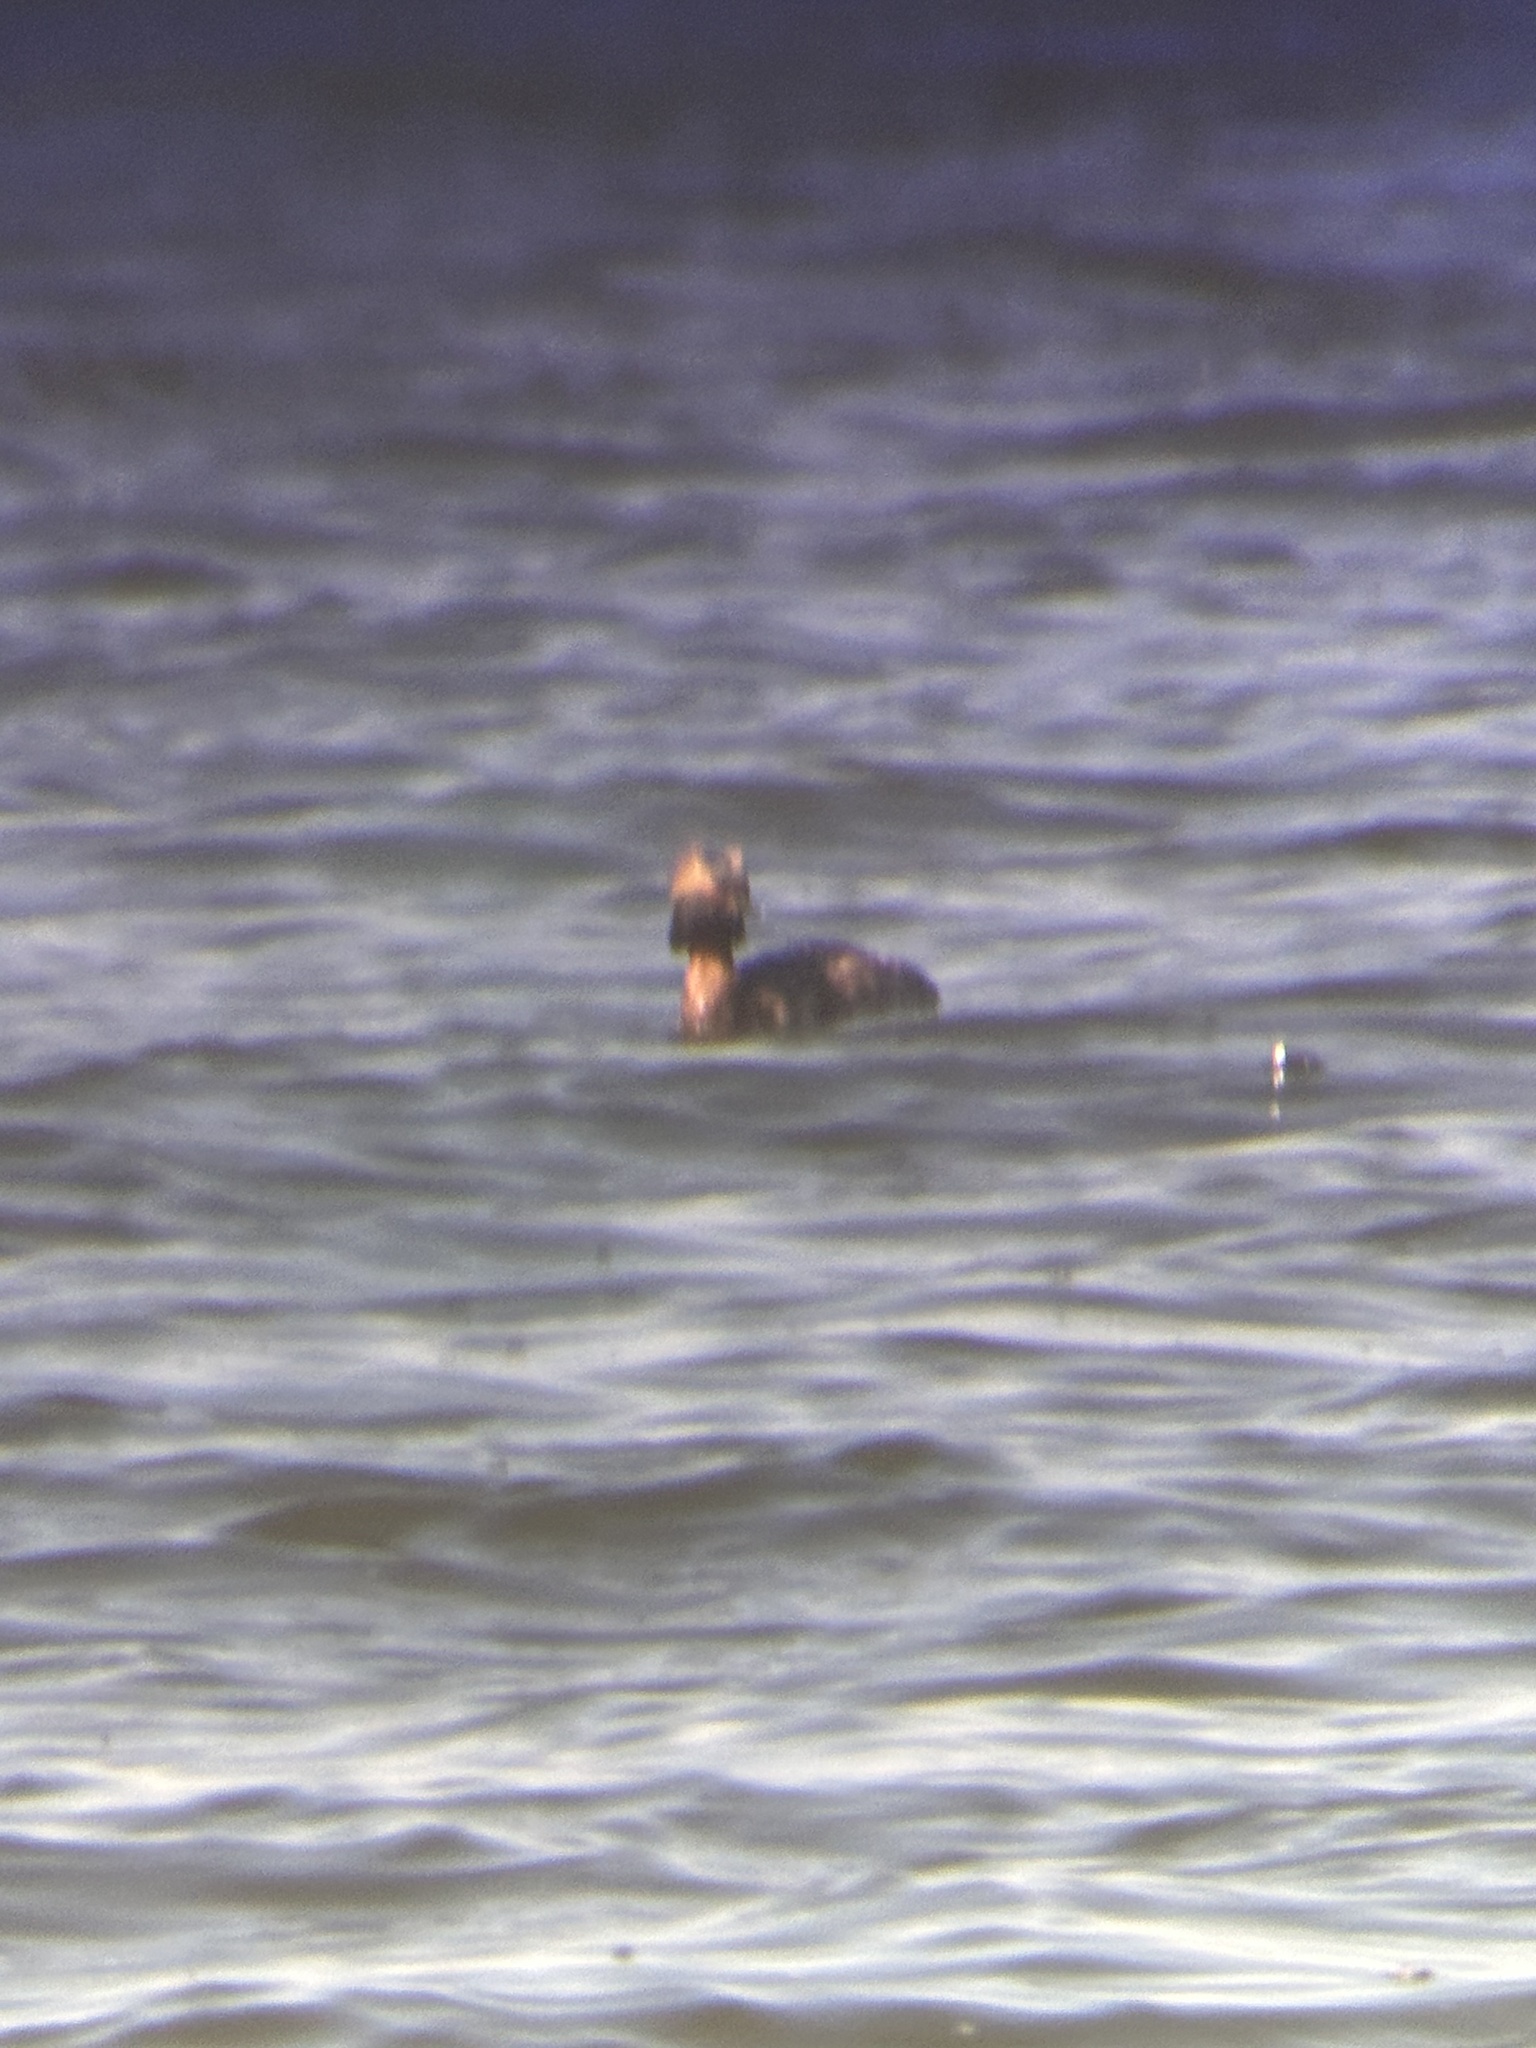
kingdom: Animalia
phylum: Chordata
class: Aves
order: Podicipediformes
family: Podicipedidae
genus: Podiceps
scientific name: Podiceps auritus
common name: Horned grebe
